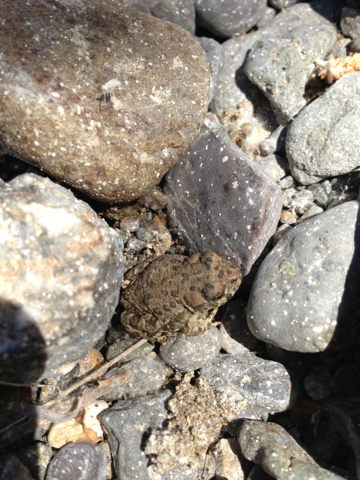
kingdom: Animalia
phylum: Chordata
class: Amphibia
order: Anura
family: Bufonidae
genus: Anaxyrus
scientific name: Anaxyrus boreas
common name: Western toad
